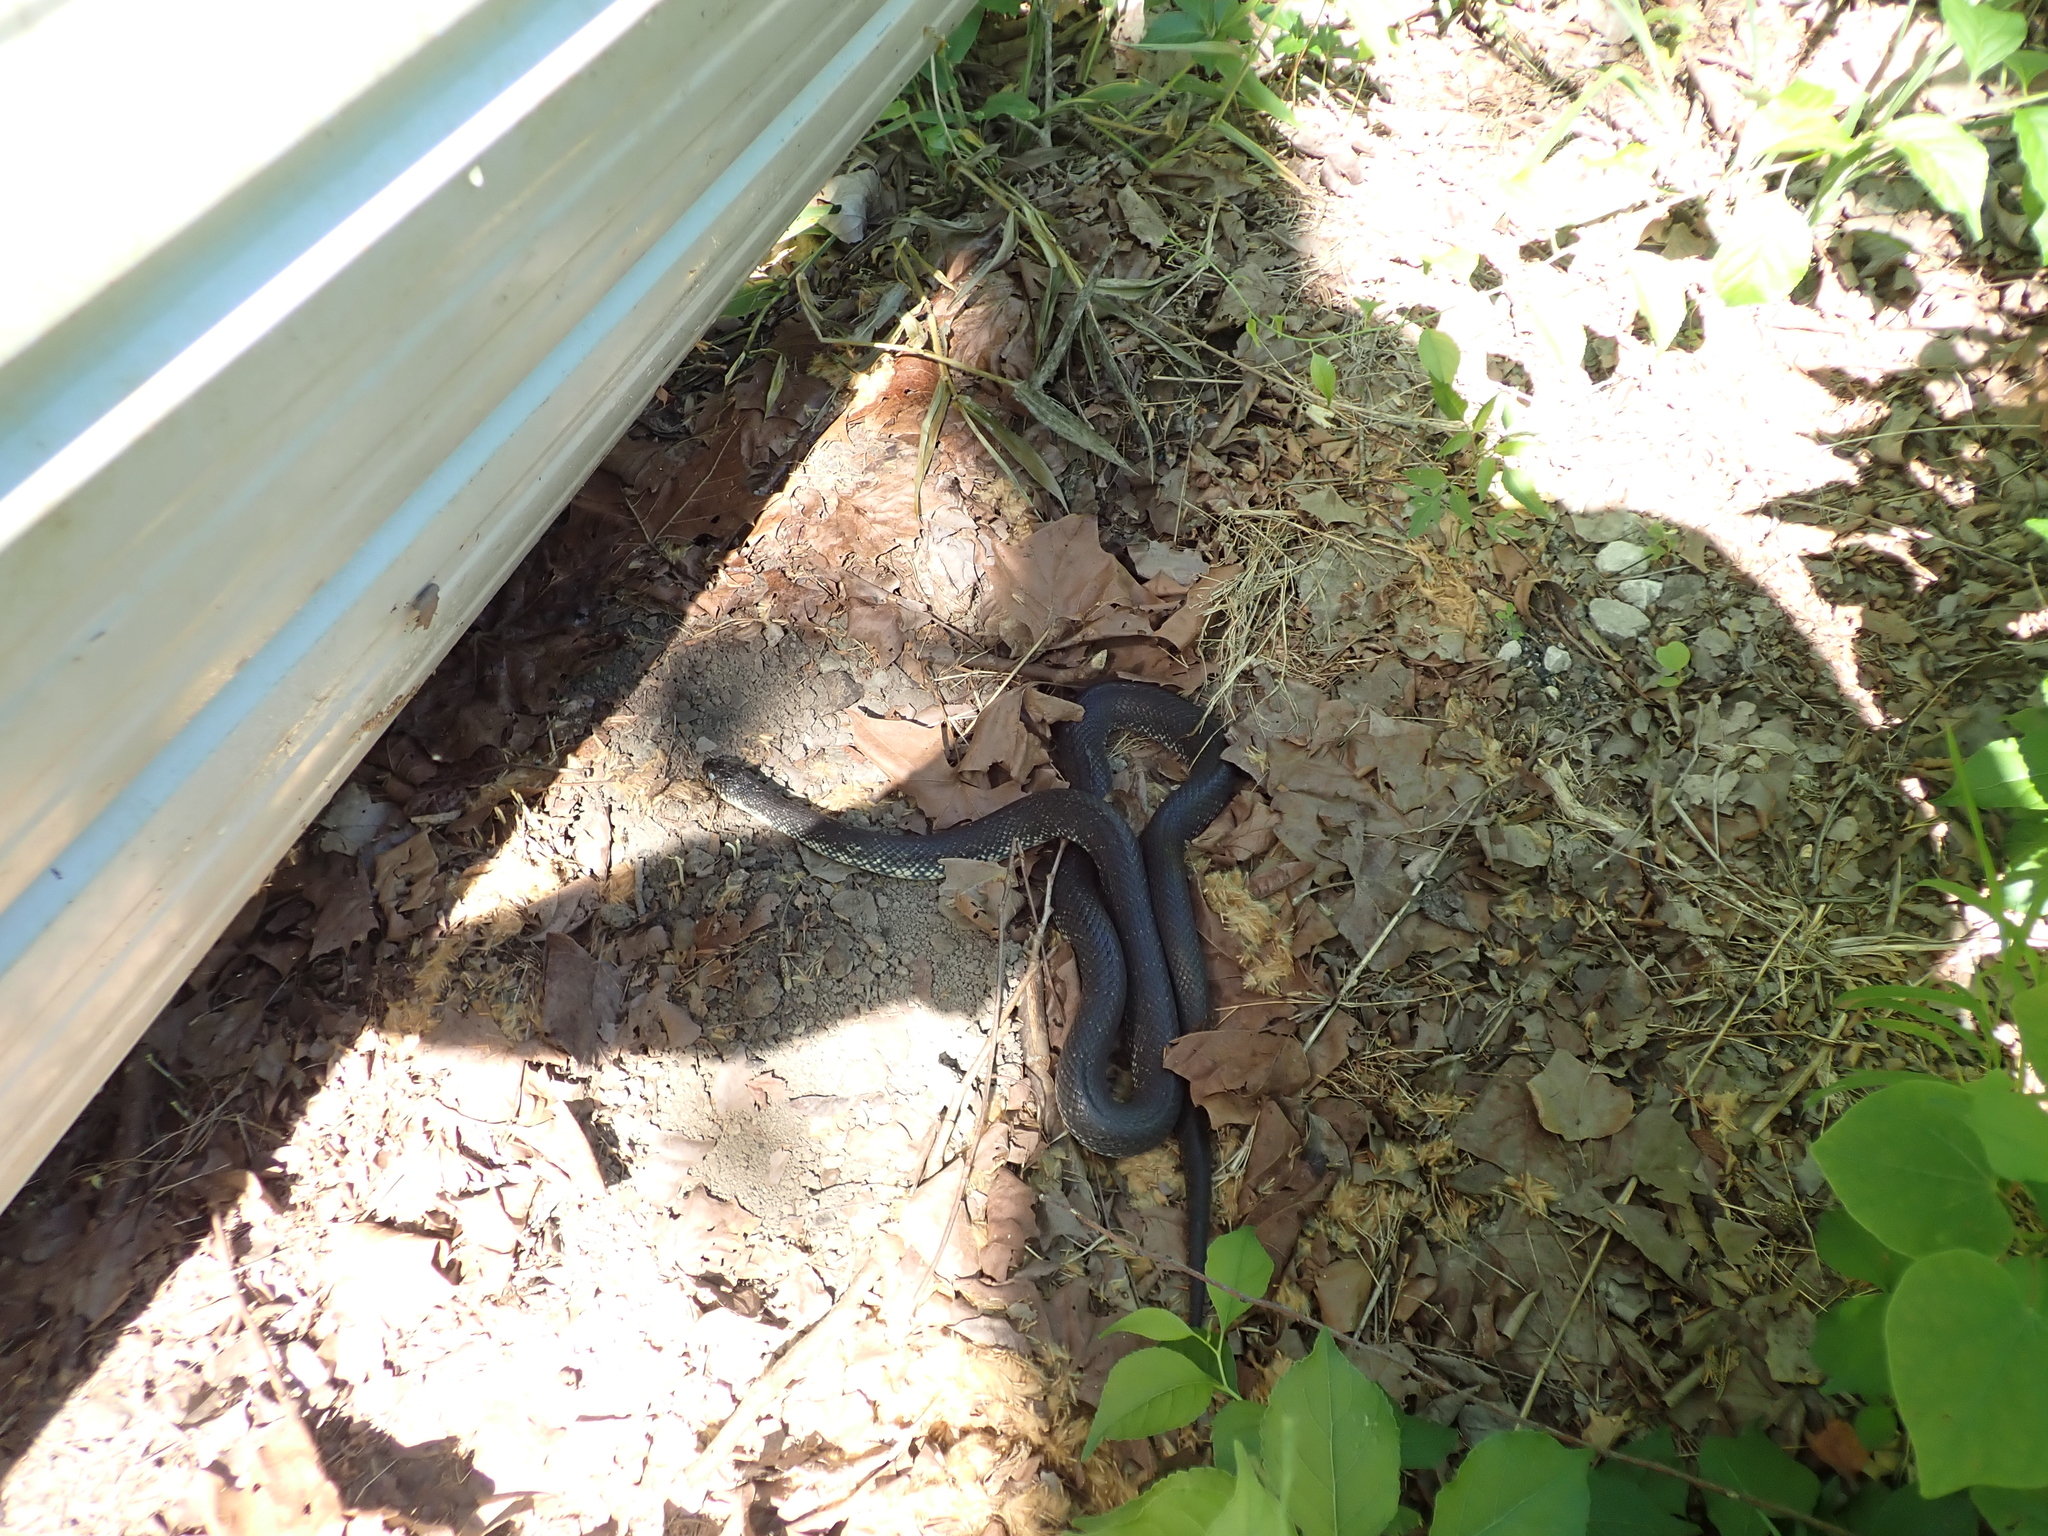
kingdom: Animalia
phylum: Chordata
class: Squamata
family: Colubridae
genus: Lampropeltis
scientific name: Lampropeltis nigra
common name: Black kingsnake
